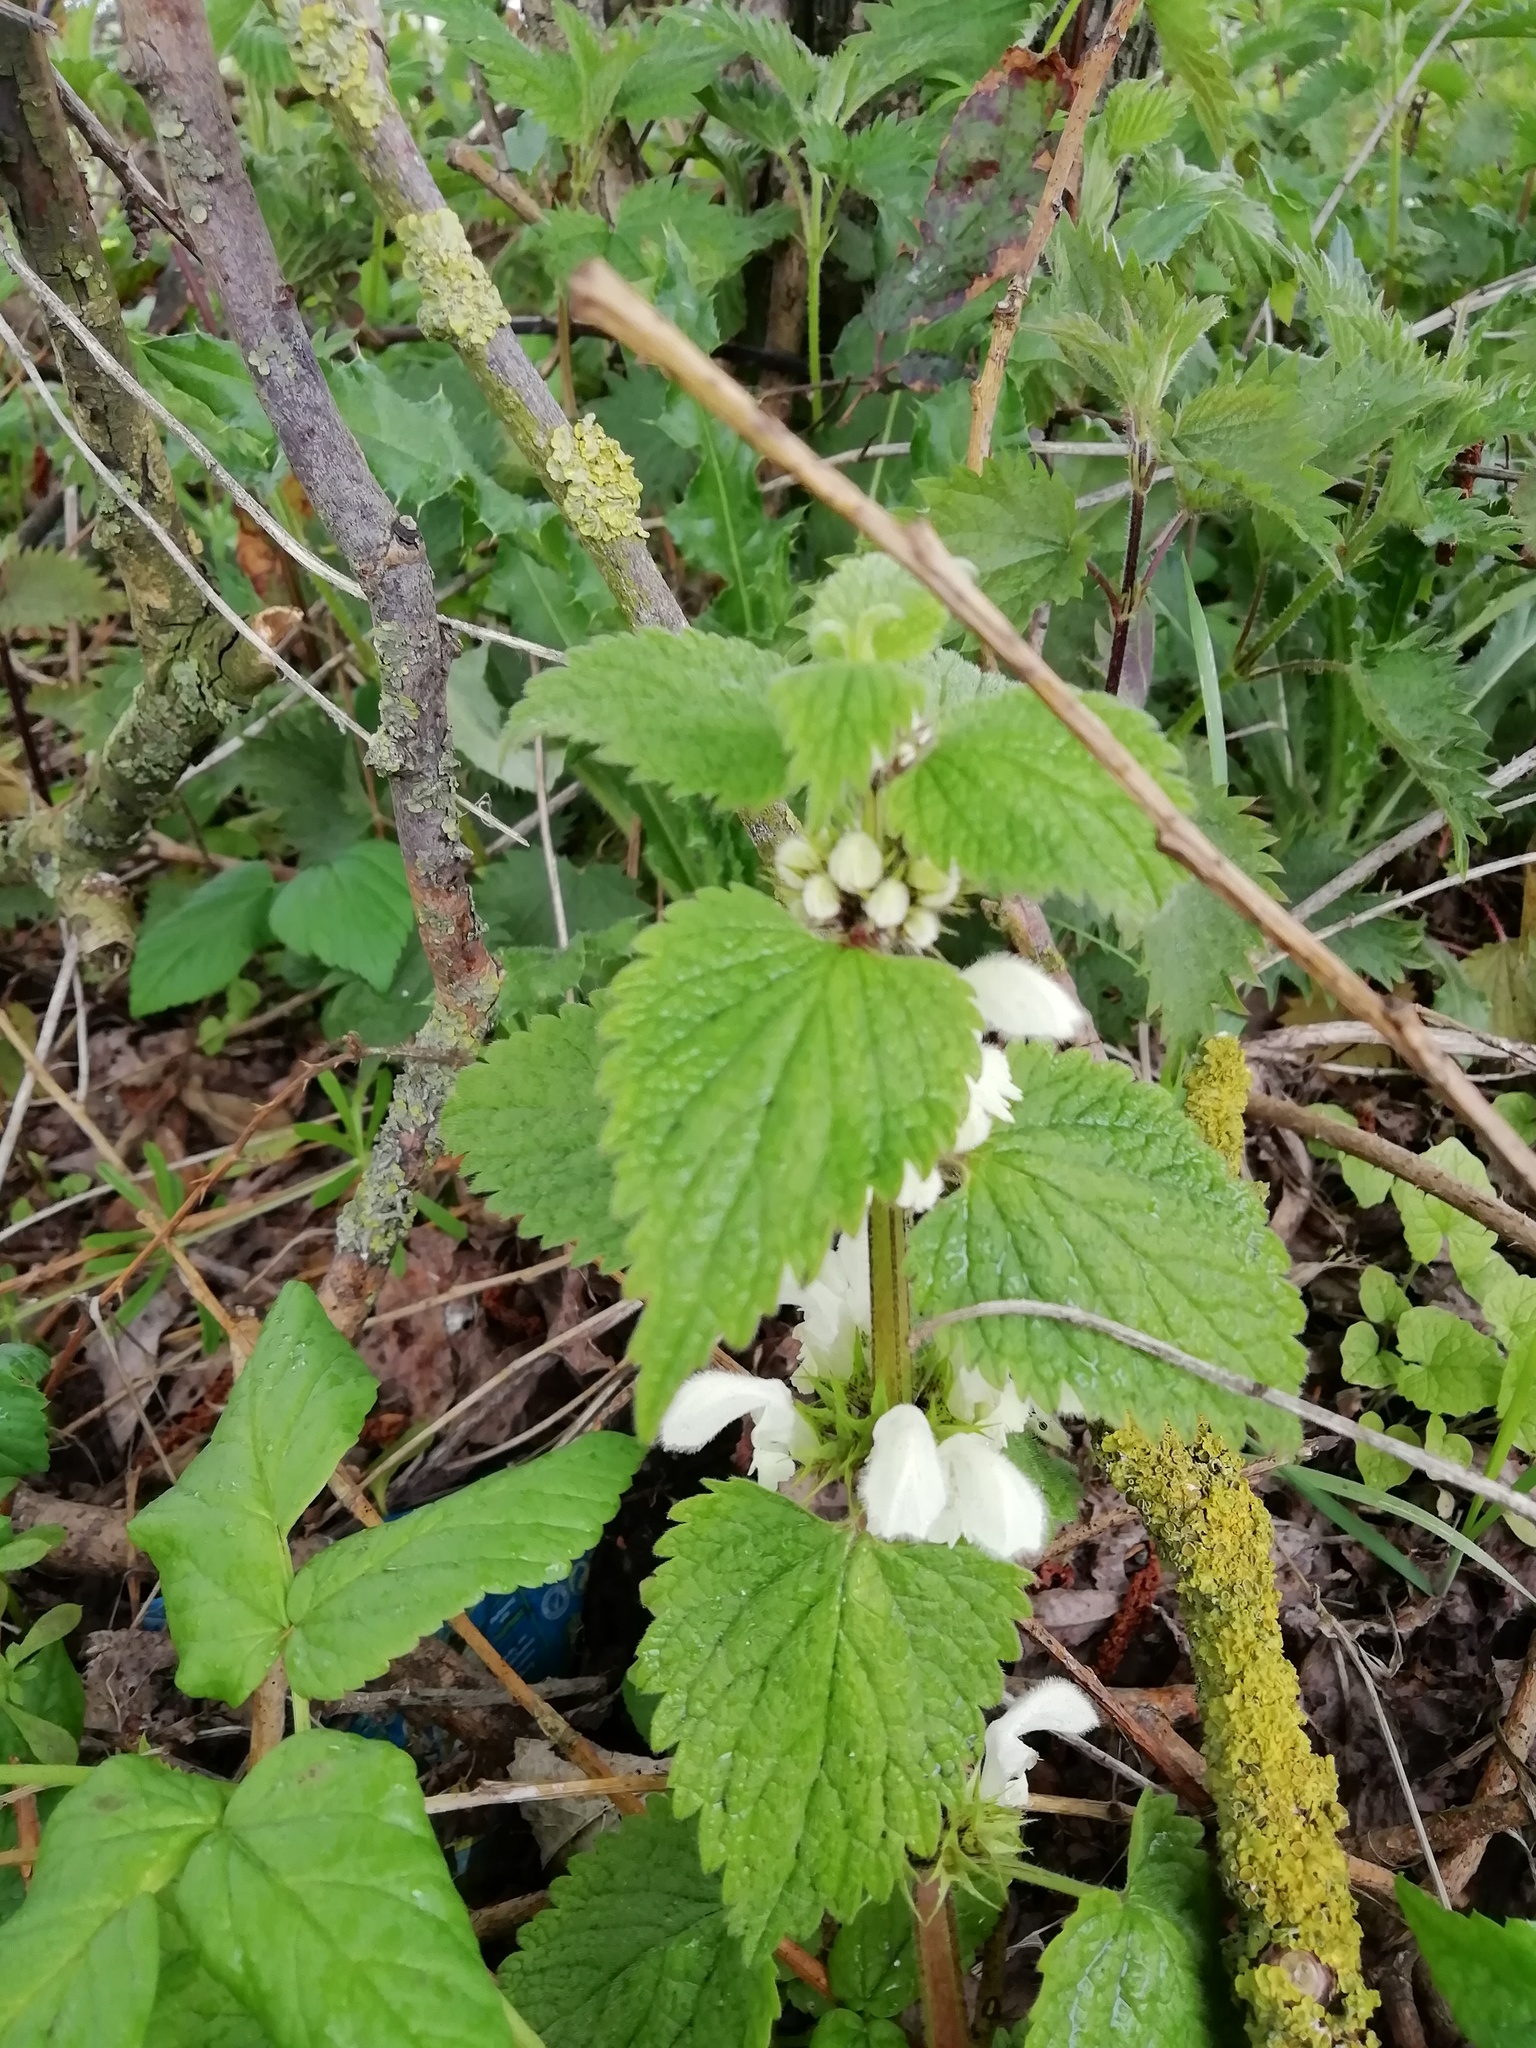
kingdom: Plantae
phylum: Tracheophyta
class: Magnoliopsida
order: Lamiales
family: Lamiaceae
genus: Lamium
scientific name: Lamium album
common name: White dead-nettle
